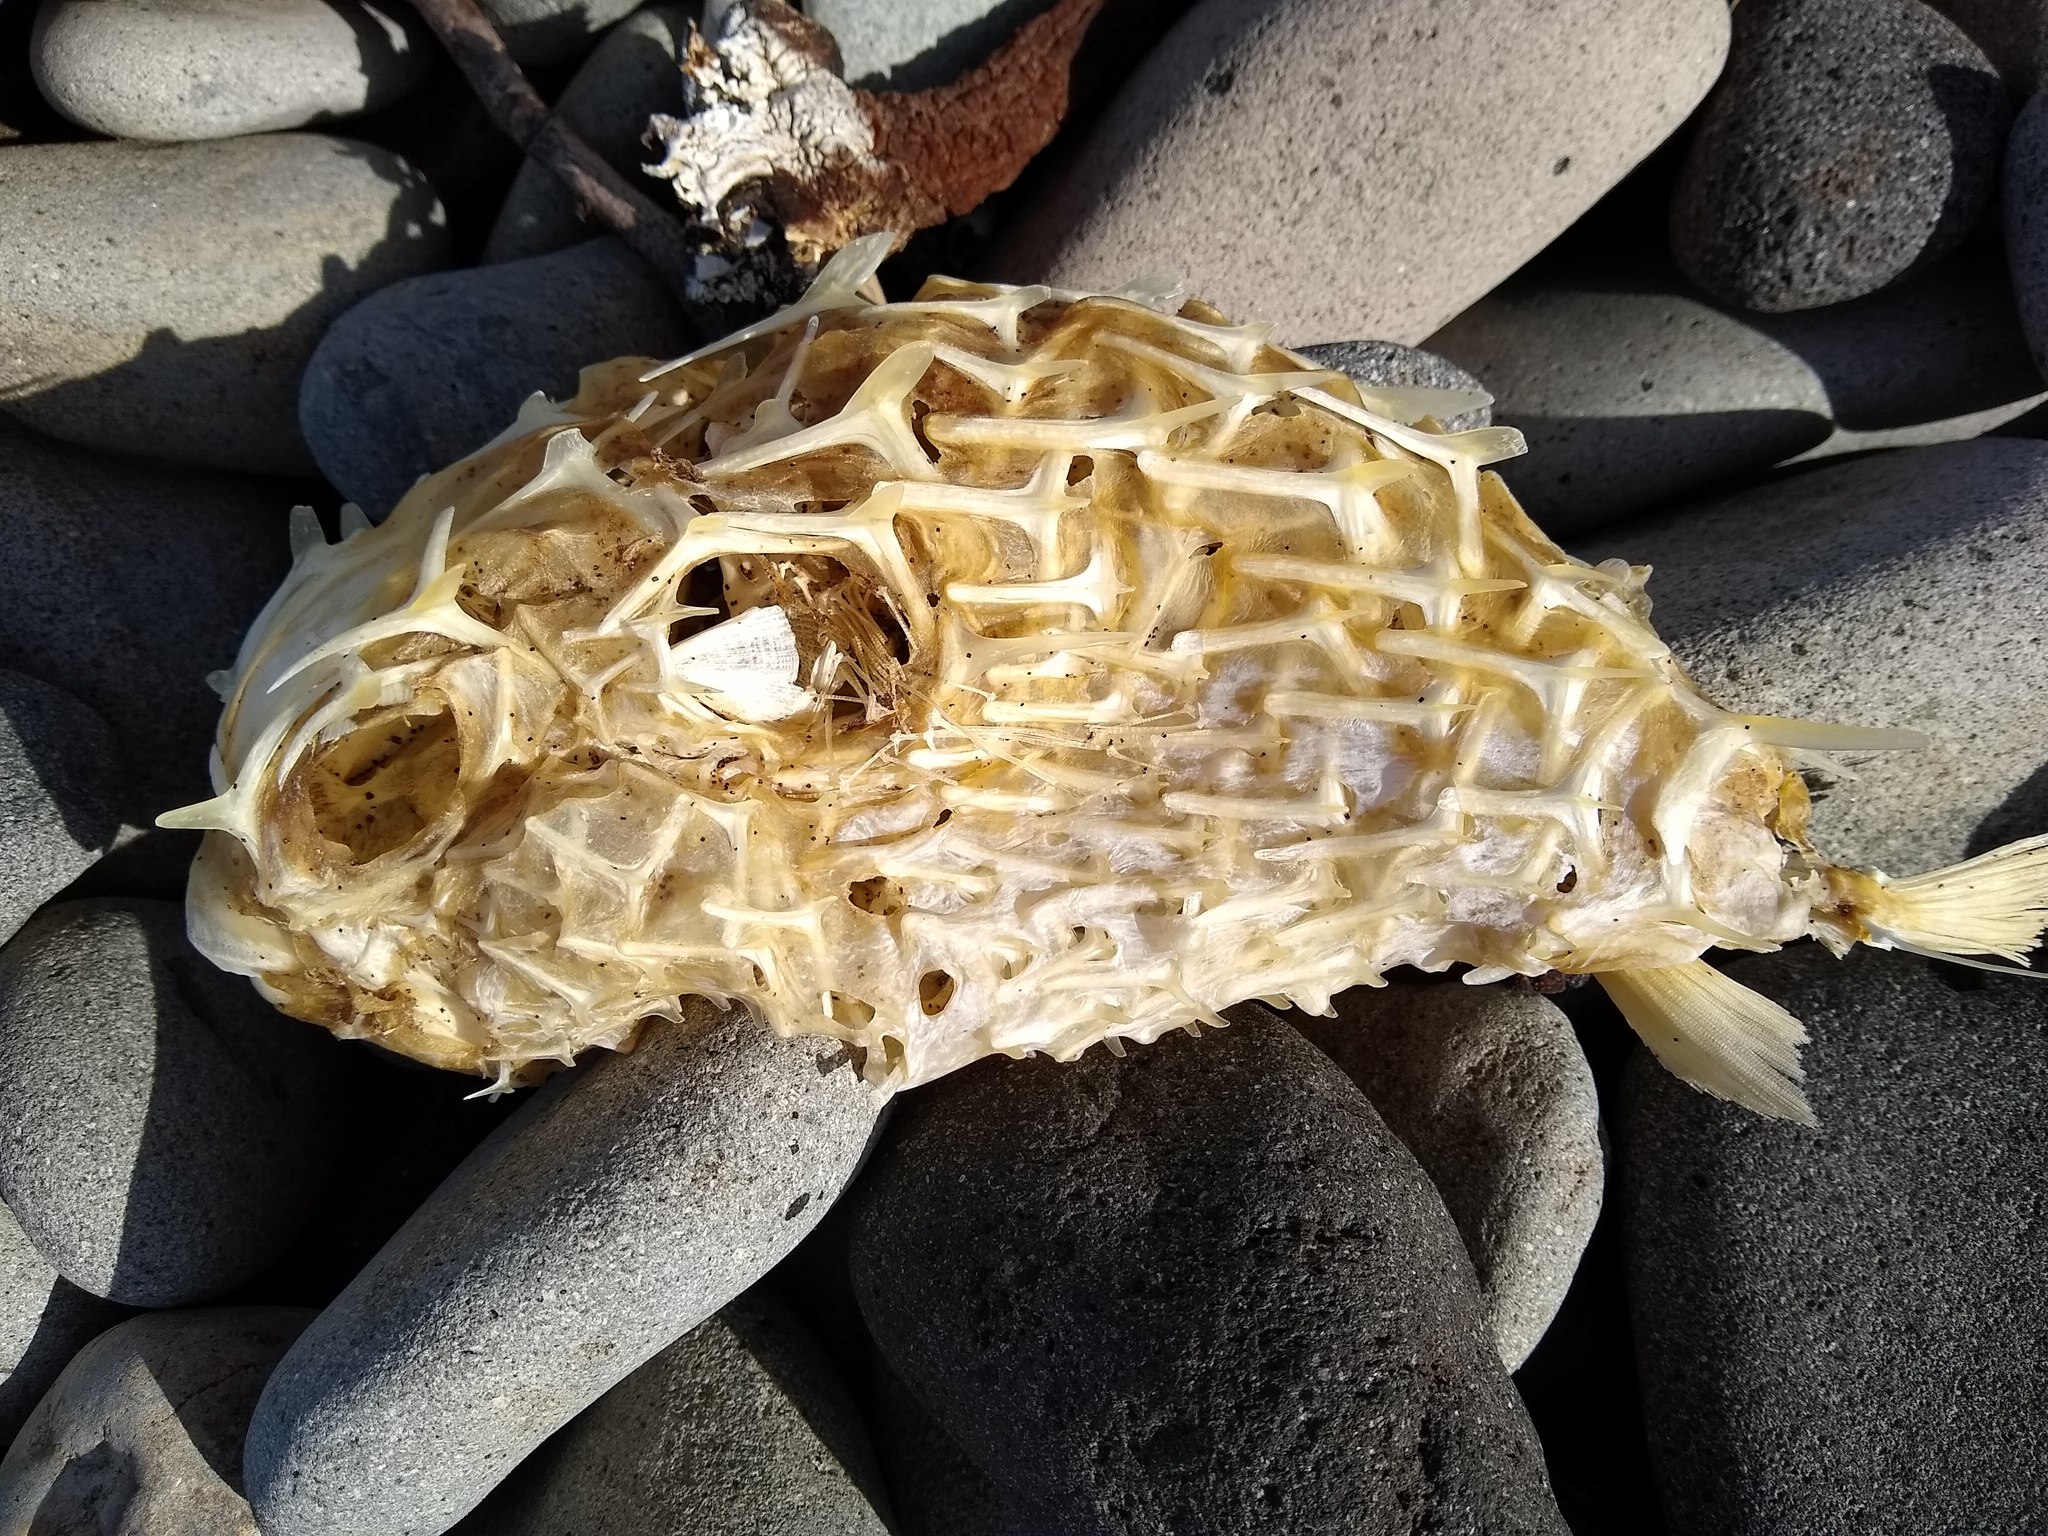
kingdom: Animalia
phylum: Chordata
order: Tetraodontiformes
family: Diodontidae
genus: Allomycterus
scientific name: Allomycterus pilatus
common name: No common name
